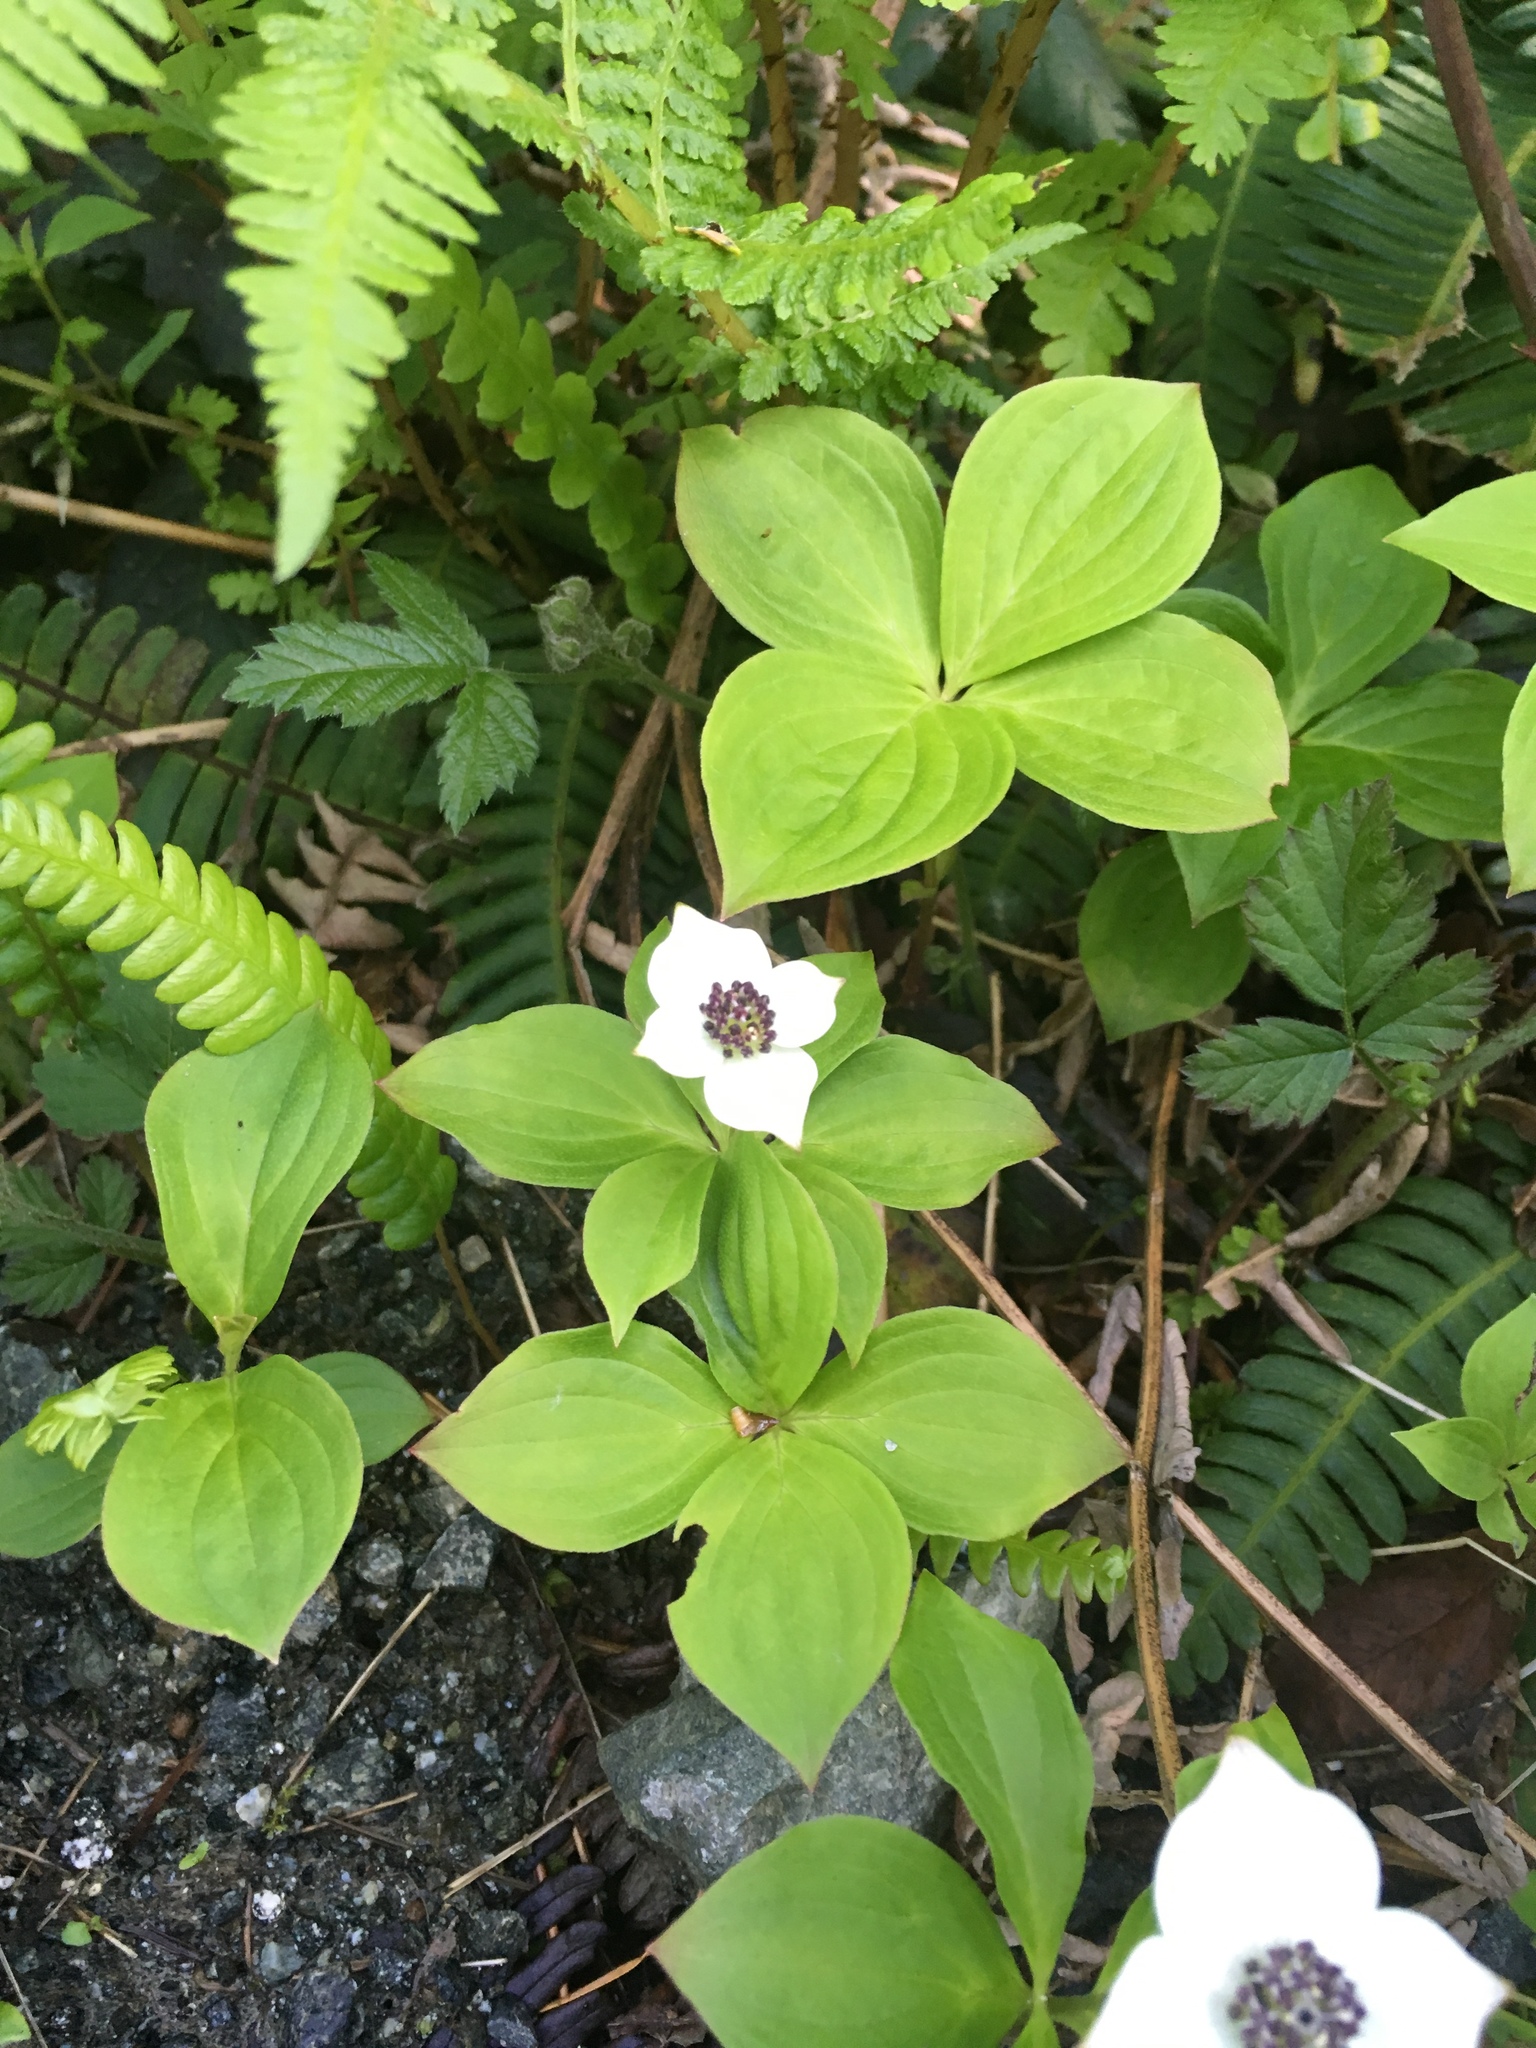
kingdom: Plantae
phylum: Tracheophyta
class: Magnoliopsida
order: Cornales
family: Cornaceae
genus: Cornus
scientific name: Cornus unalaschkensis
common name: Alaska bunchberry
